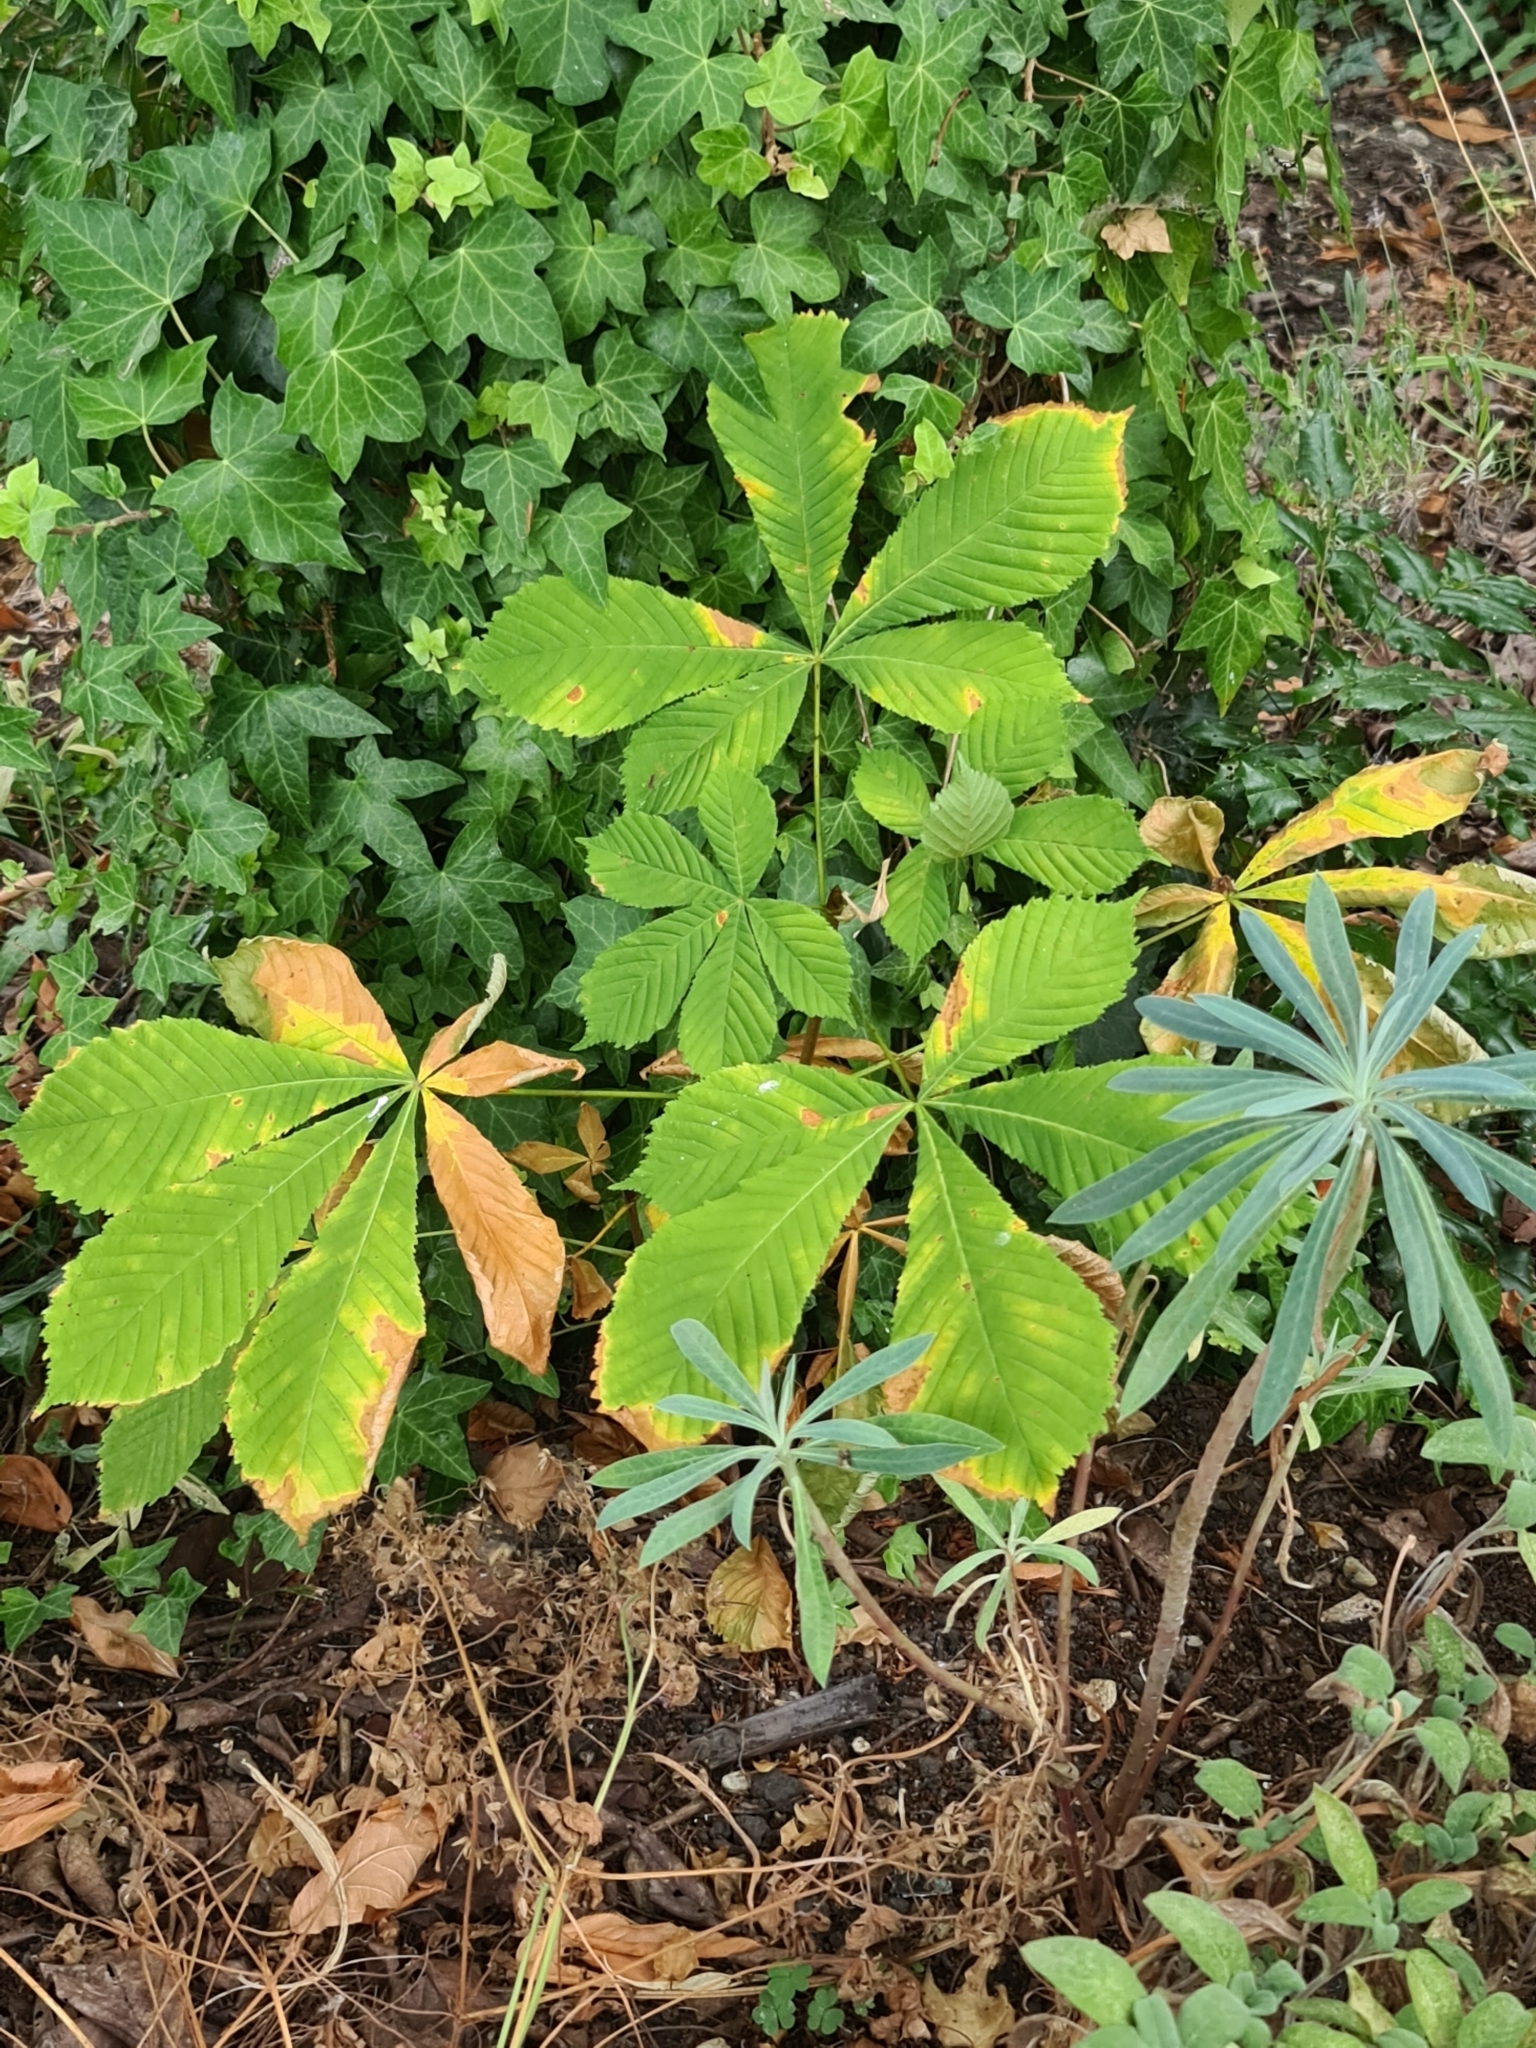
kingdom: Plantae
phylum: Tracheophyta
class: Magnoliopsida
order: Sapindales
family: Sapindaceae
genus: Aesculus
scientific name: Aesculus hippocastanum
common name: Horse-chestnut
